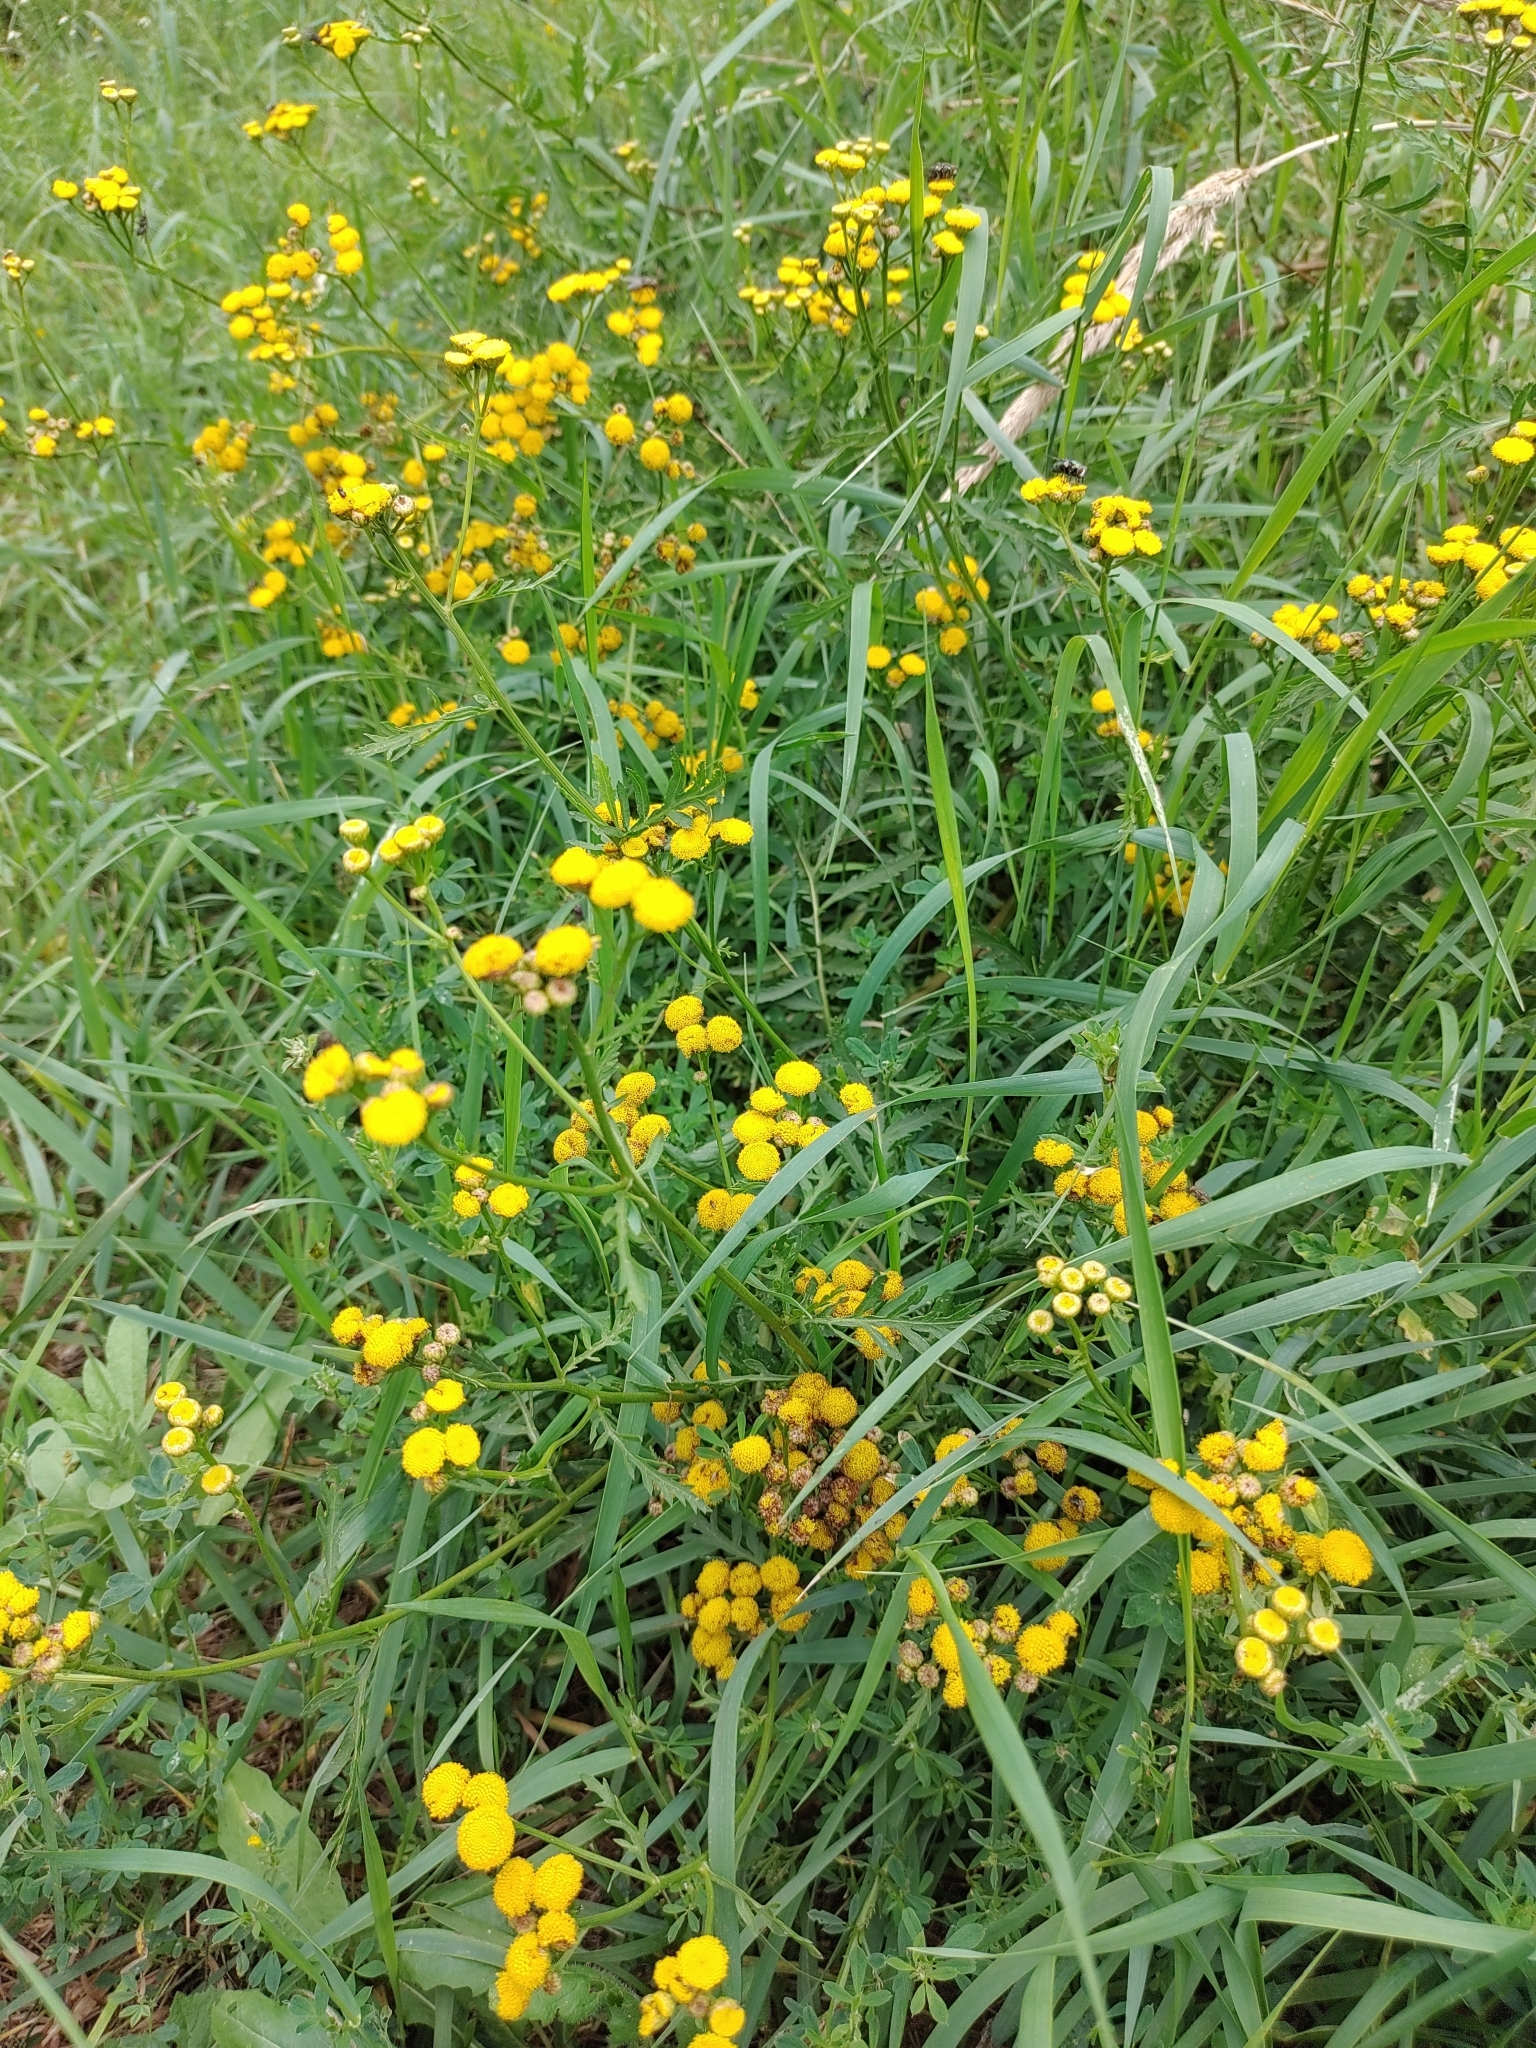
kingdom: Plantae
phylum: Tracheophyta
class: Magnoliopsida
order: Asterales
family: Asteraceae
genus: Tanacetum
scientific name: Tanacetum vulgare
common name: Common tansy
